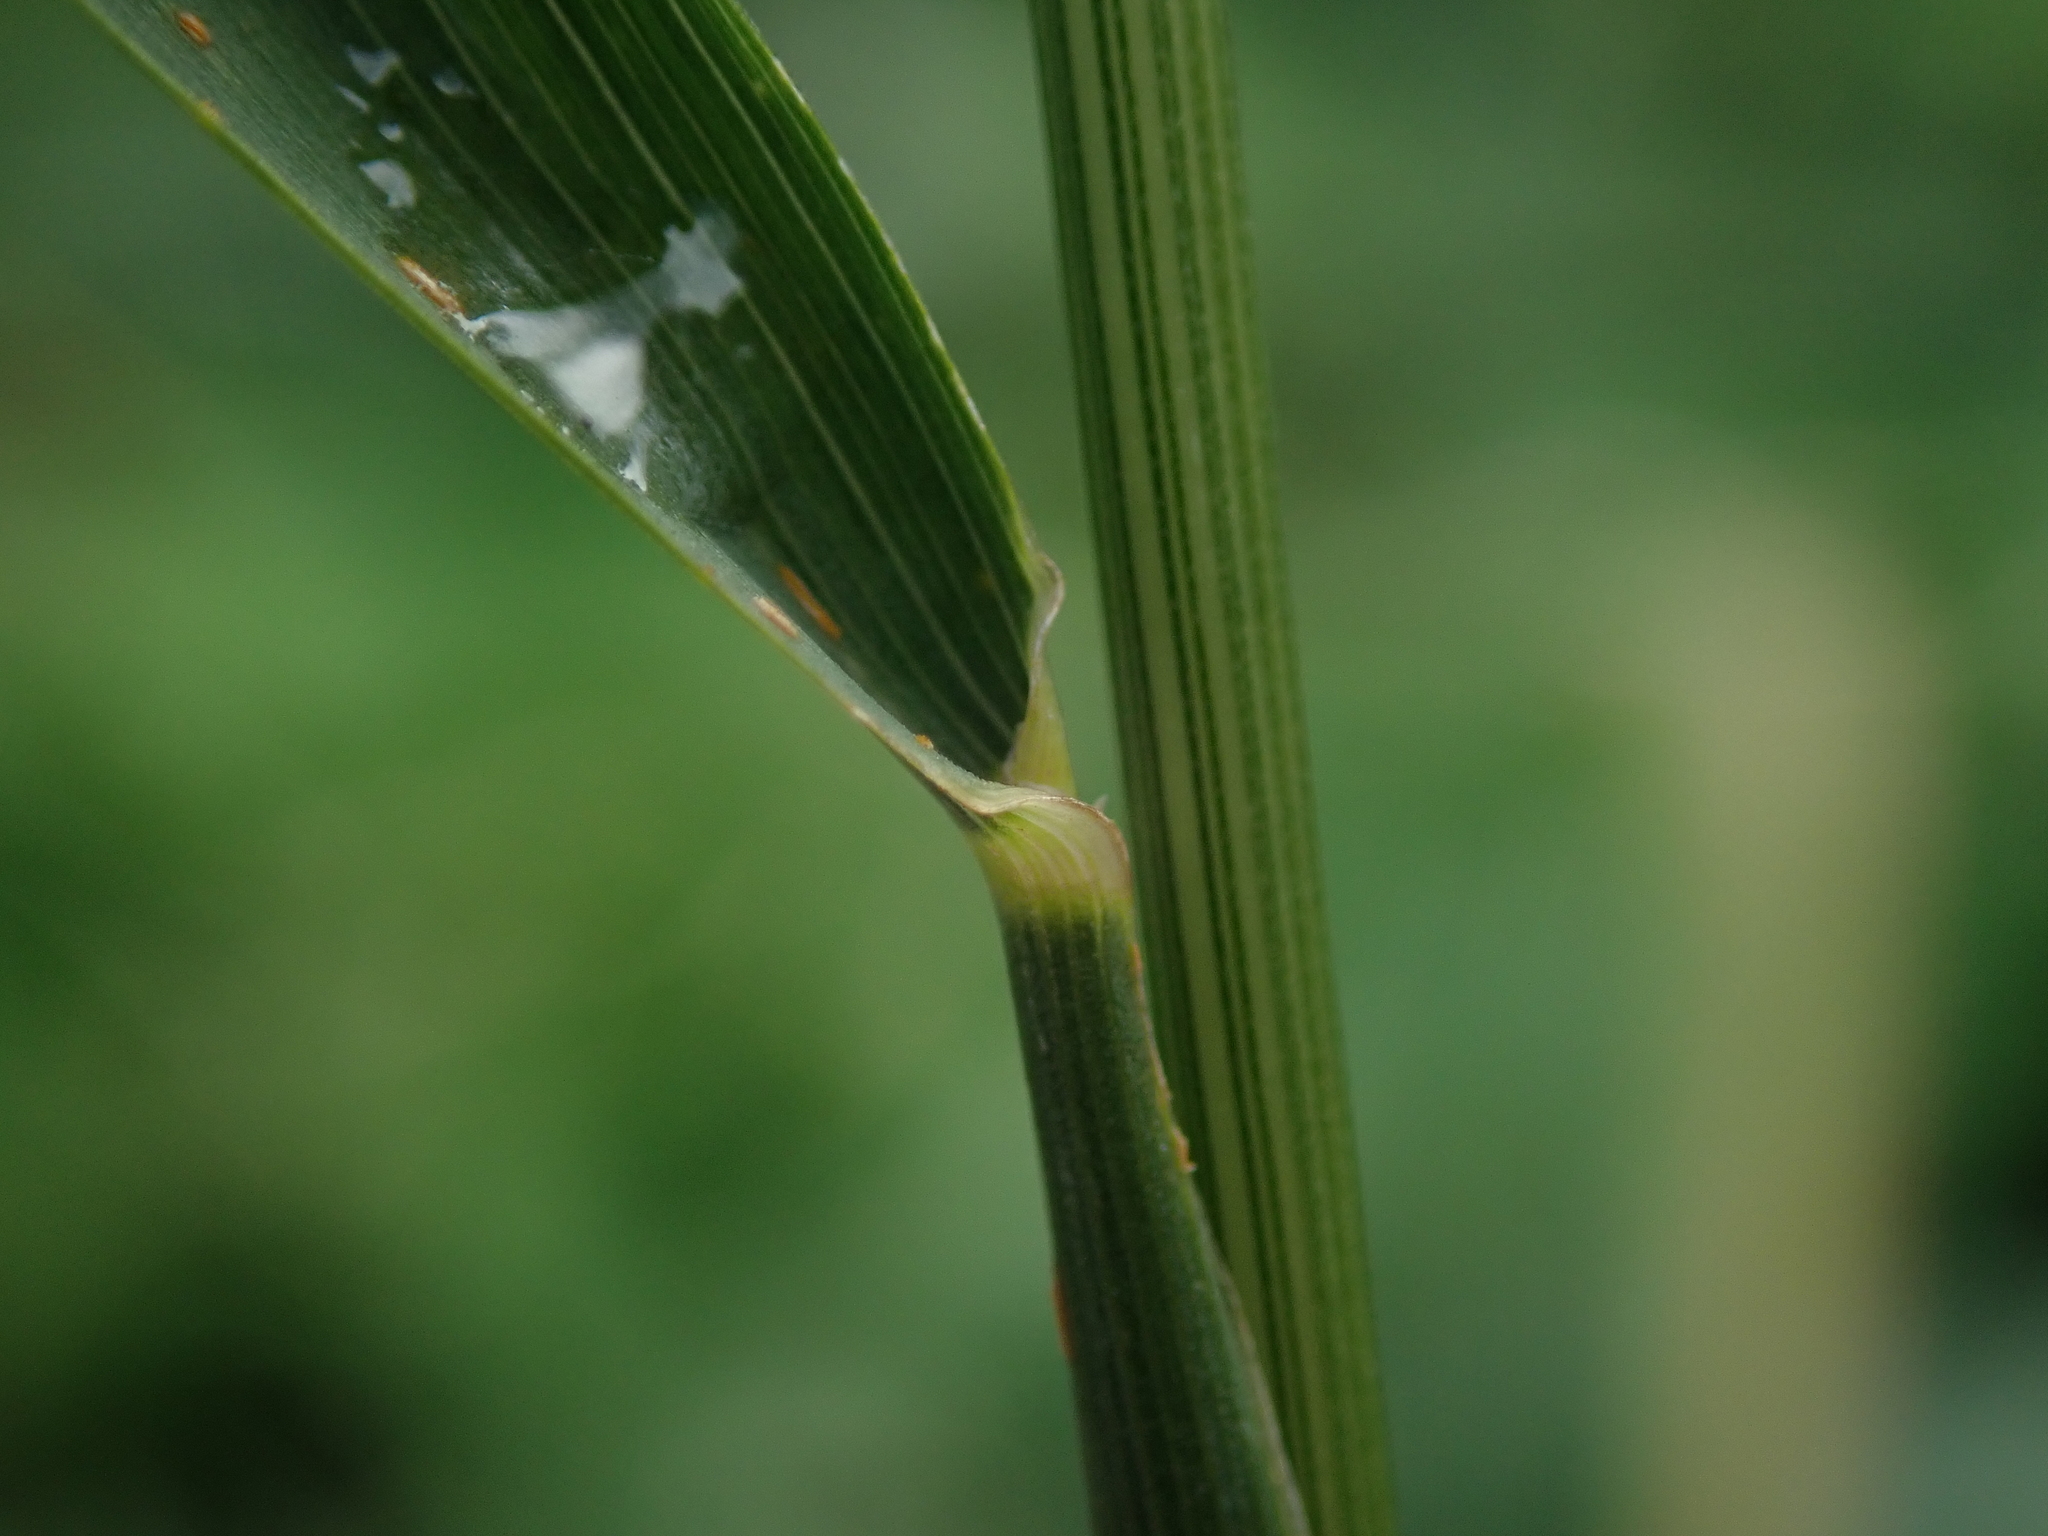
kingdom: Plantae
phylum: Tracheophyta
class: Liliopsida
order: Poales
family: Poaceae
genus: Arrhenatherum
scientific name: Arrhenatherum elatius
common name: Tall oatgrass
